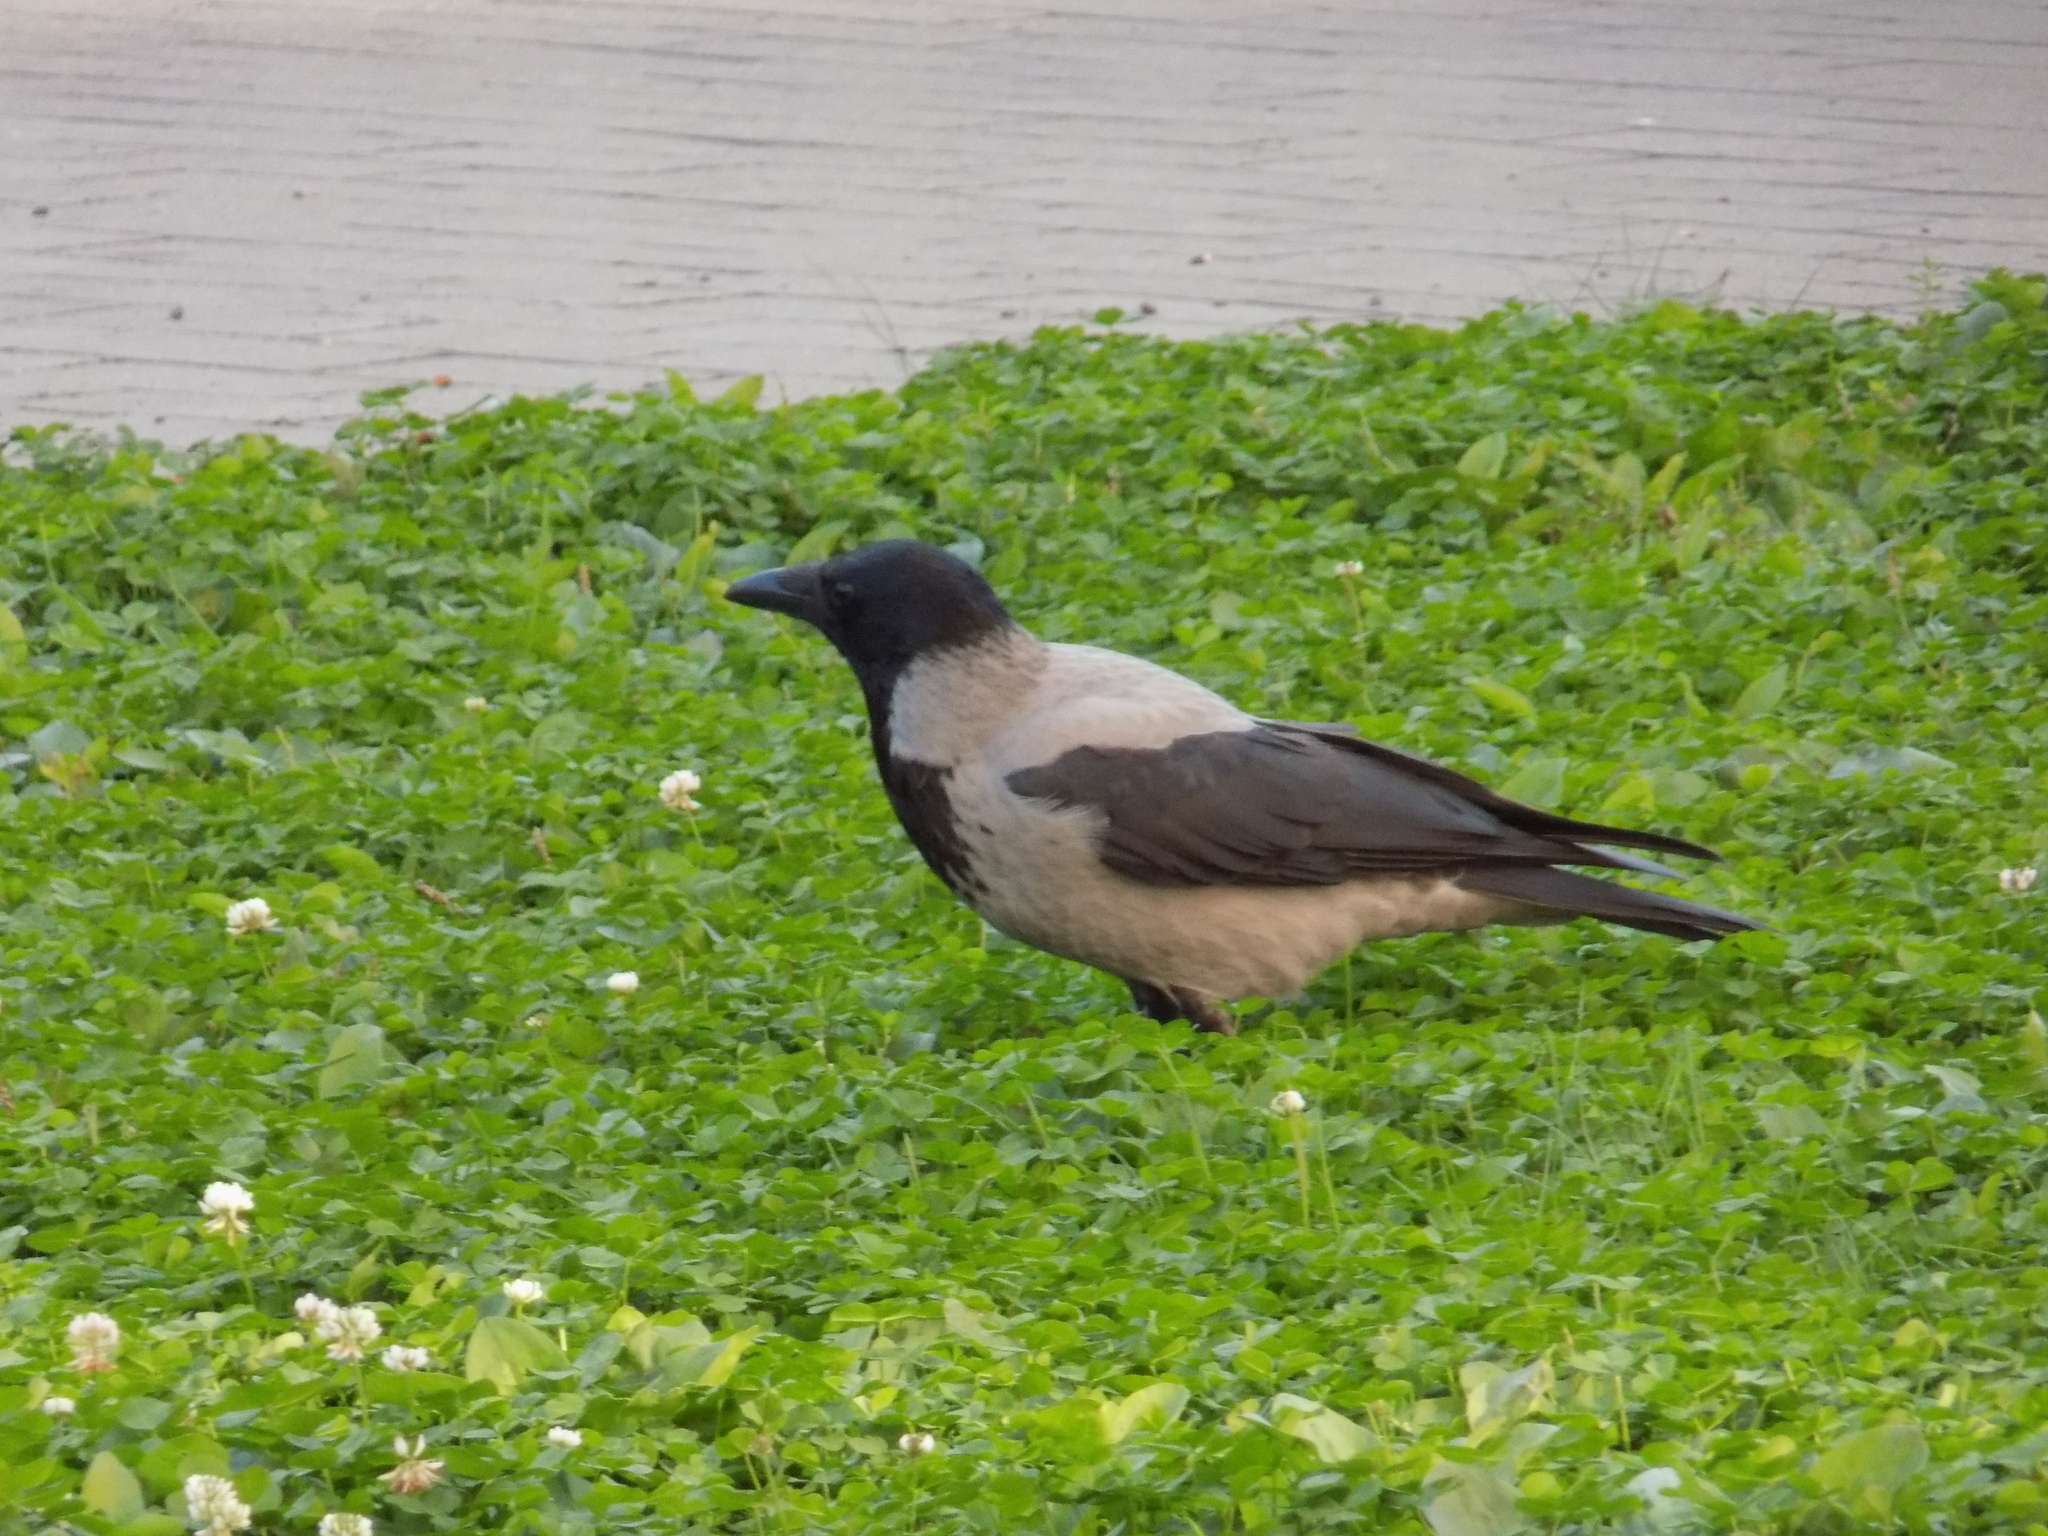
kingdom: Animalia
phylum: Chordata
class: Aves
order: Passeriformes
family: Corvidae
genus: Corvus
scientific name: Corvus cornix
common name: Hooded crow
